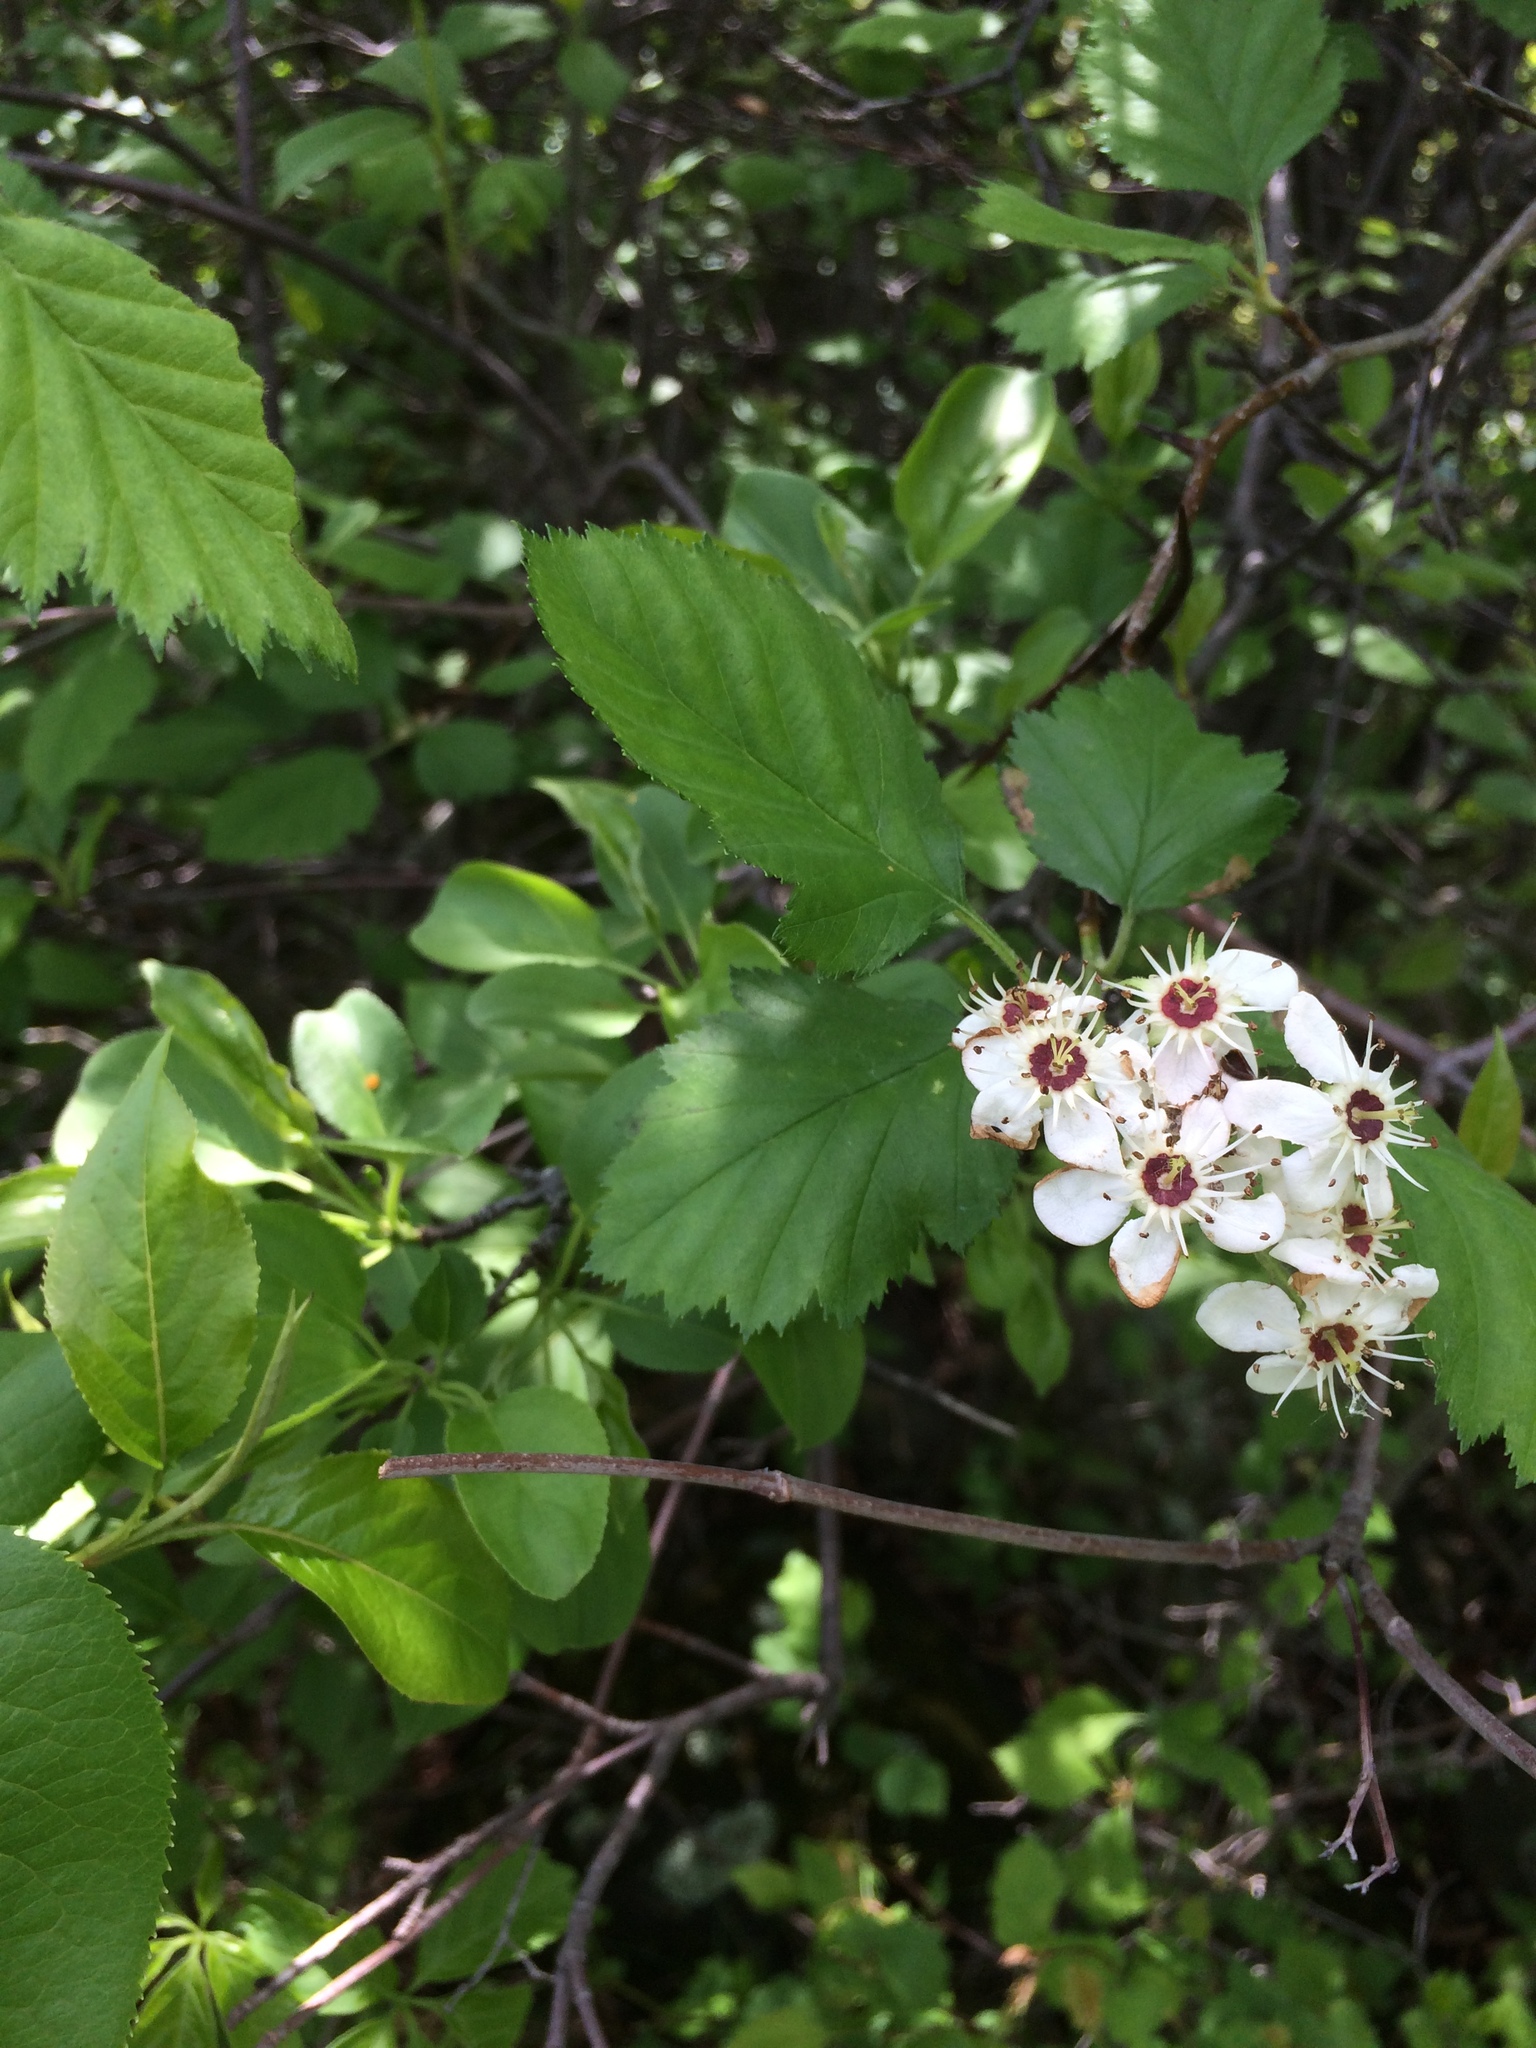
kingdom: Plantae
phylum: Tracheophyta
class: Magnoliopsida
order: Rosales
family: Rosaceae
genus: Crataegus
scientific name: Crataegus submollis
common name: Hairy cockspurthorn
